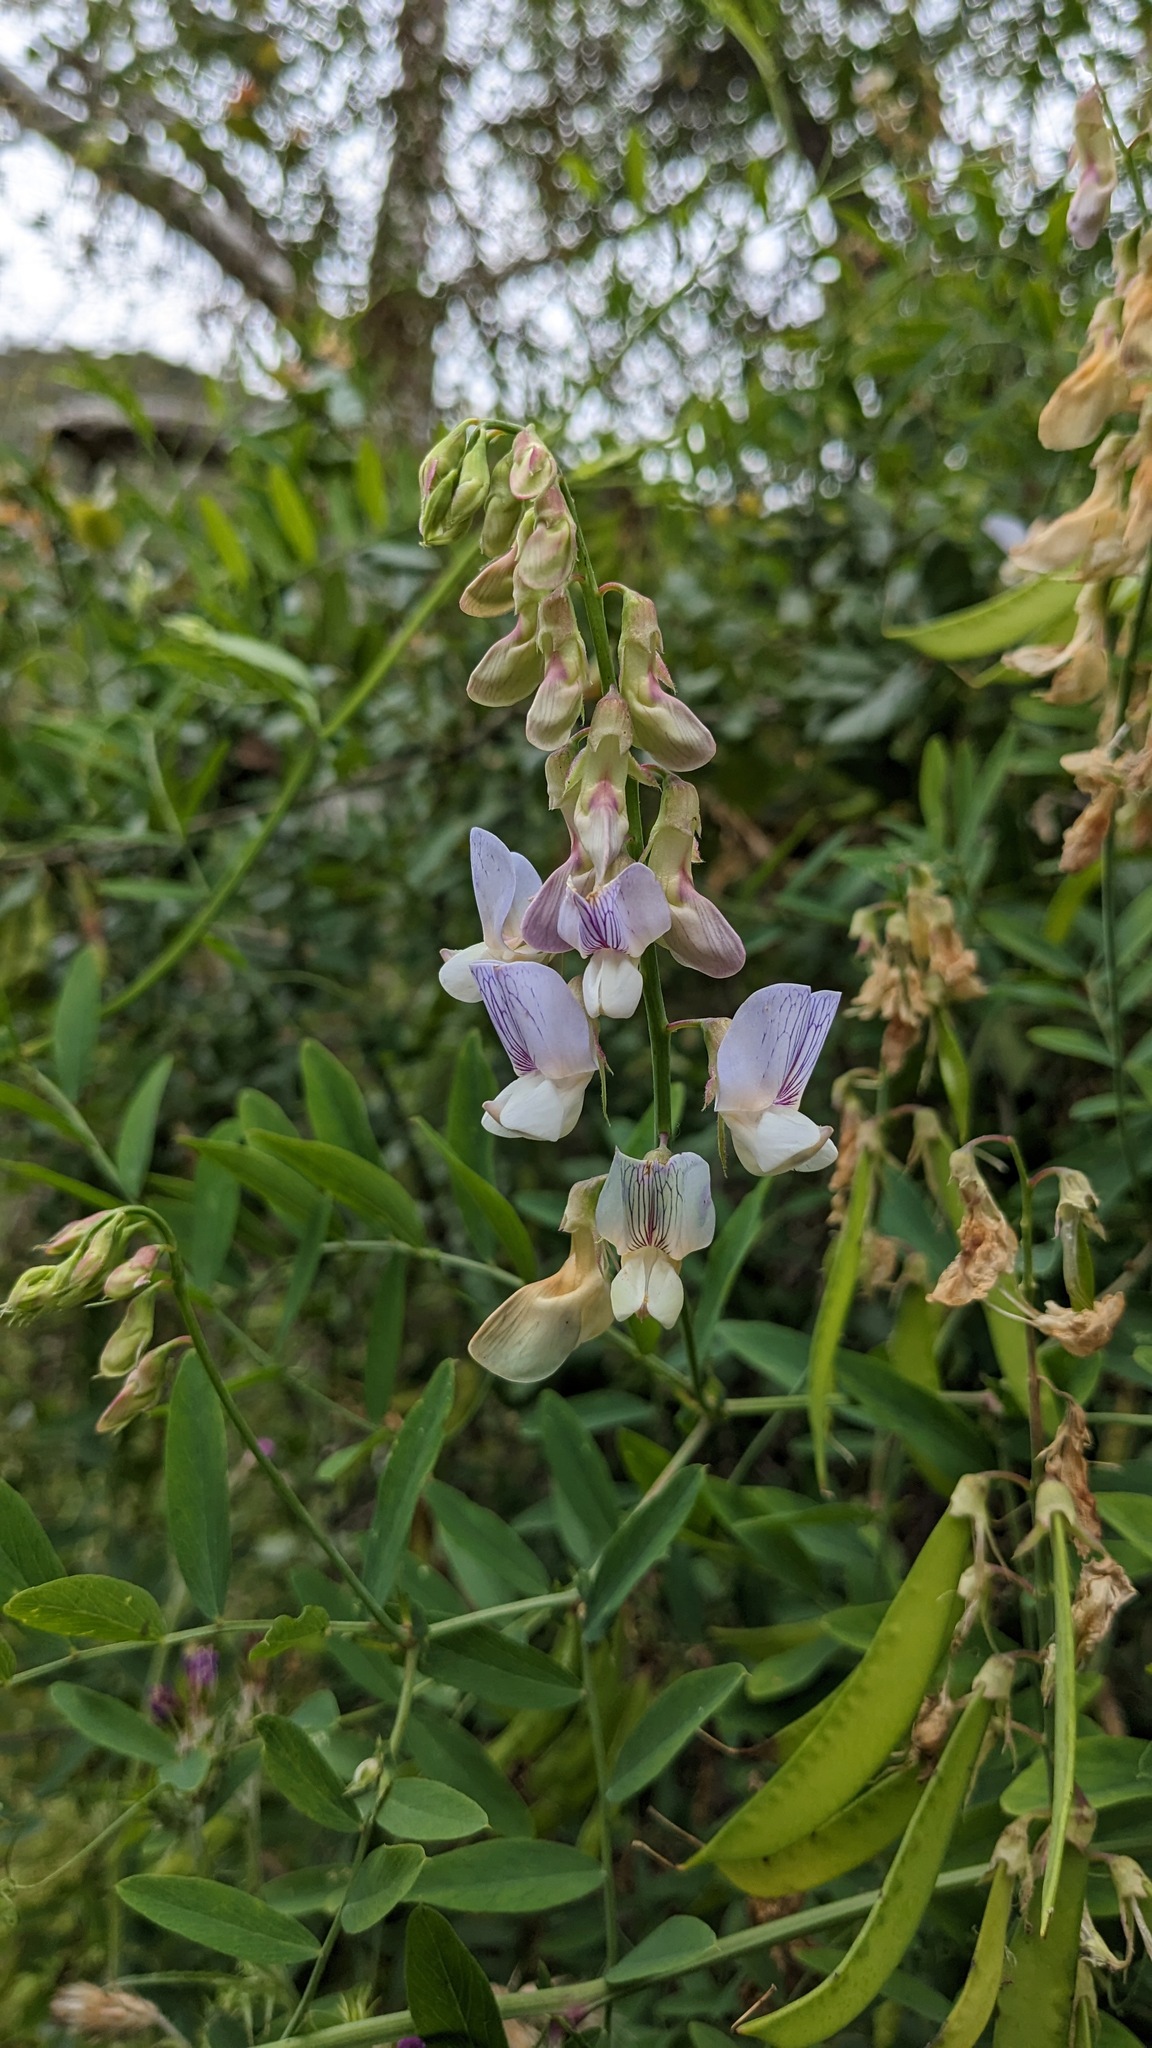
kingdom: Plantae
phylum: Tracheophyta
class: Magnoliopsida
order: Fabales
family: Fabaceae
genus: Lathyrus
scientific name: Lathyrus vestitus
